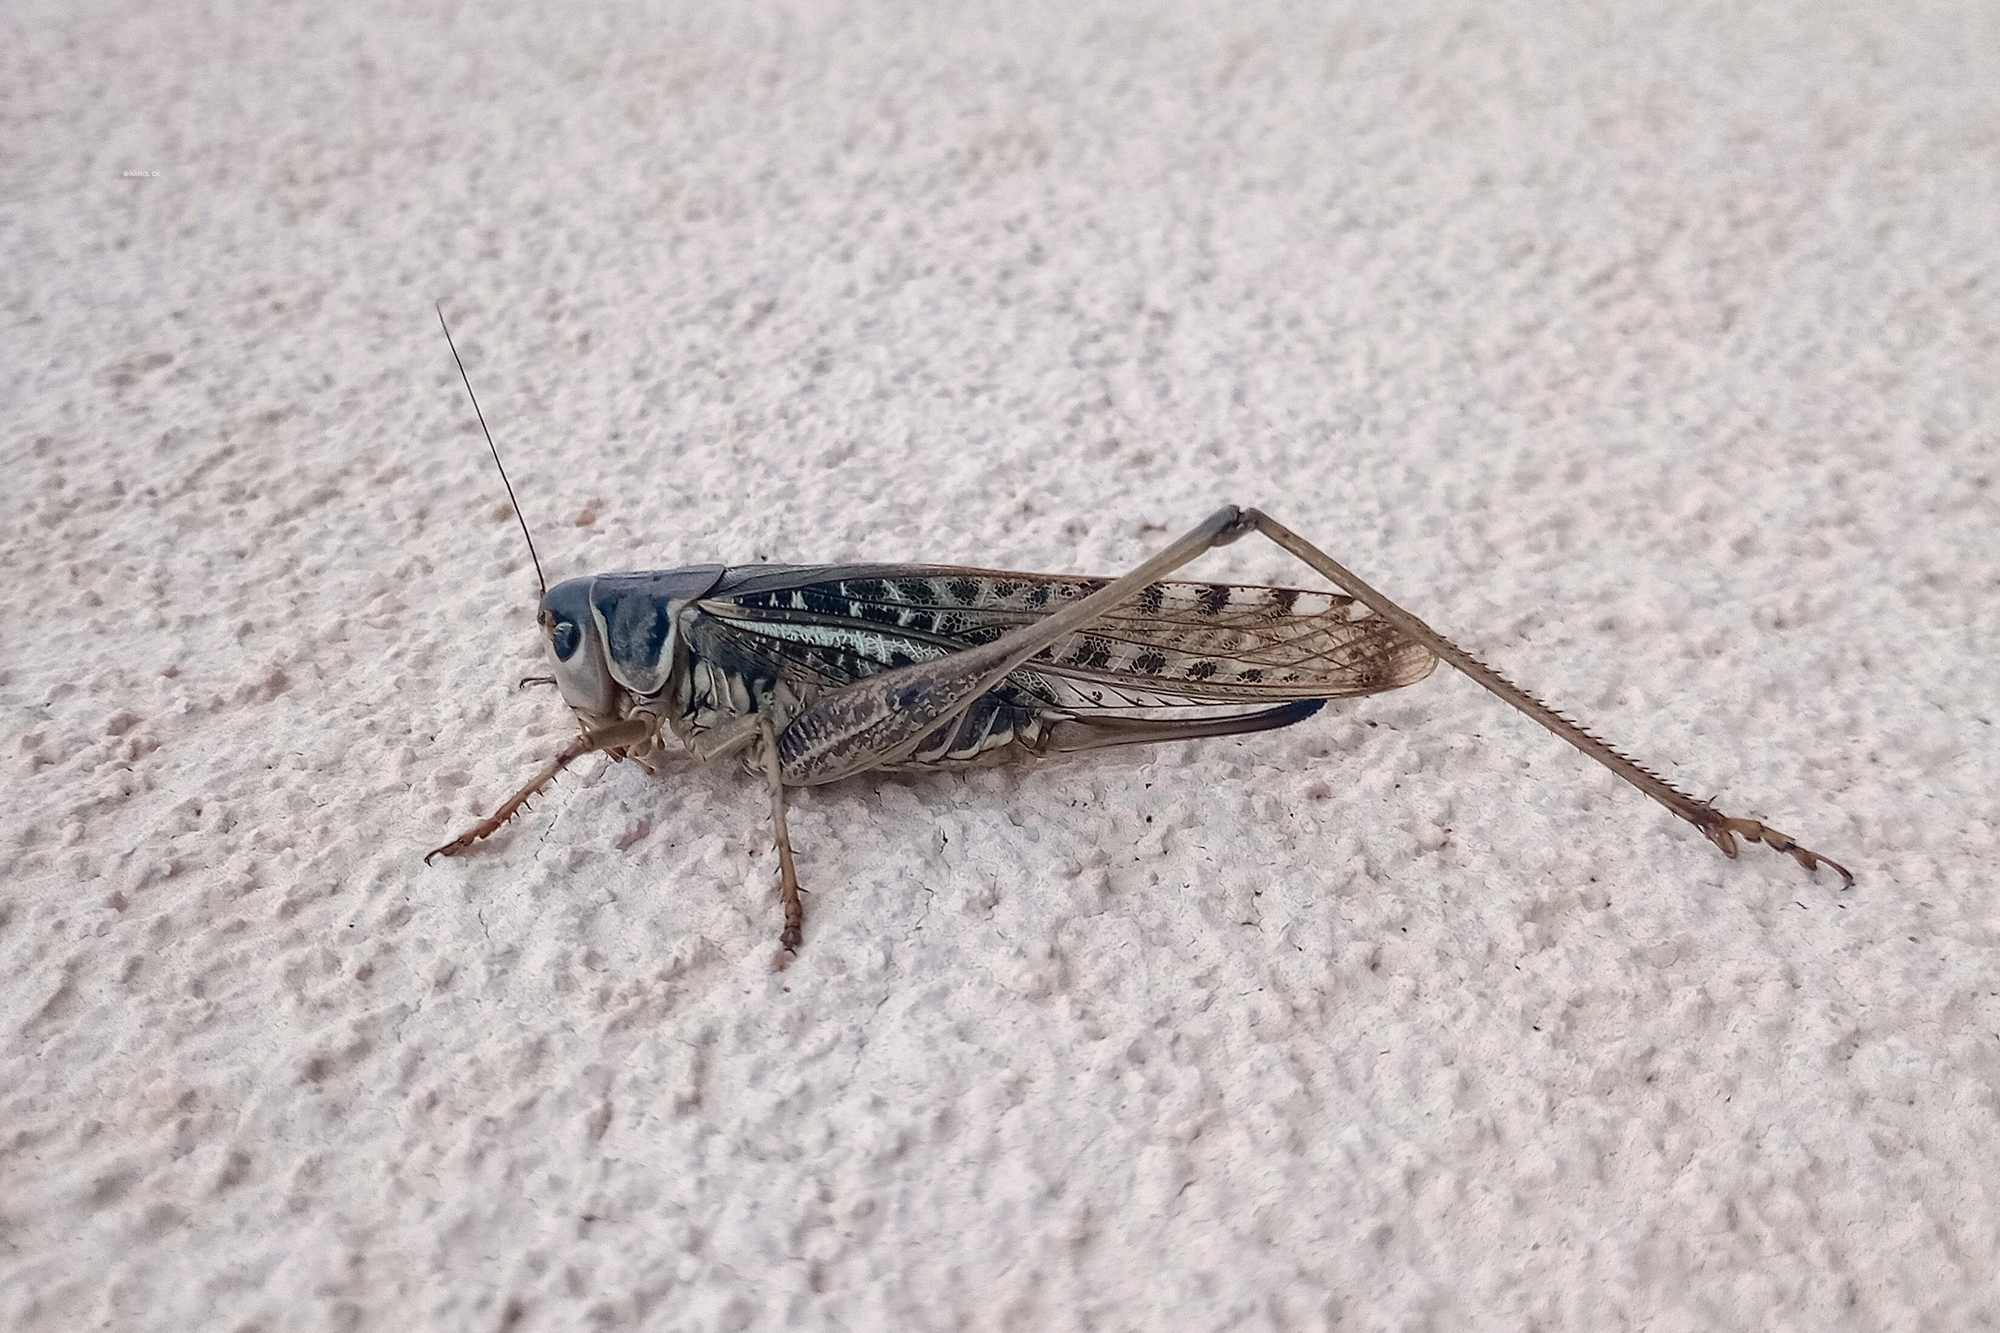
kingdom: Animalia
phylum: Arthropoda
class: Insecta
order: Orthoptera
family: Tettigoniidae
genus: Decticus
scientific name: Decticus albifrons
